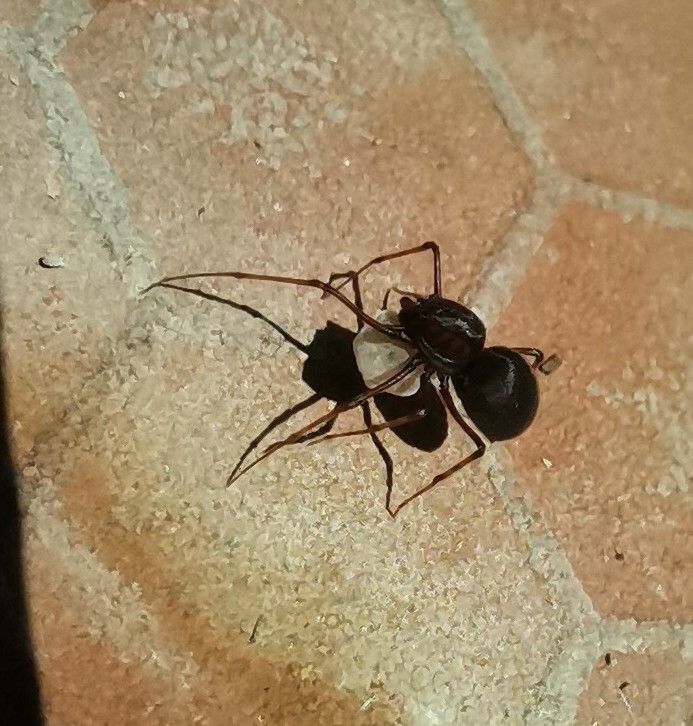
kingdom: Animalia
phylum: Arthropoda
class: Arachnida
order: Araneae
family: Scytodidae
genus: Scytodes
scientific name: Scytodes fusca
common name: Spitting spiders
